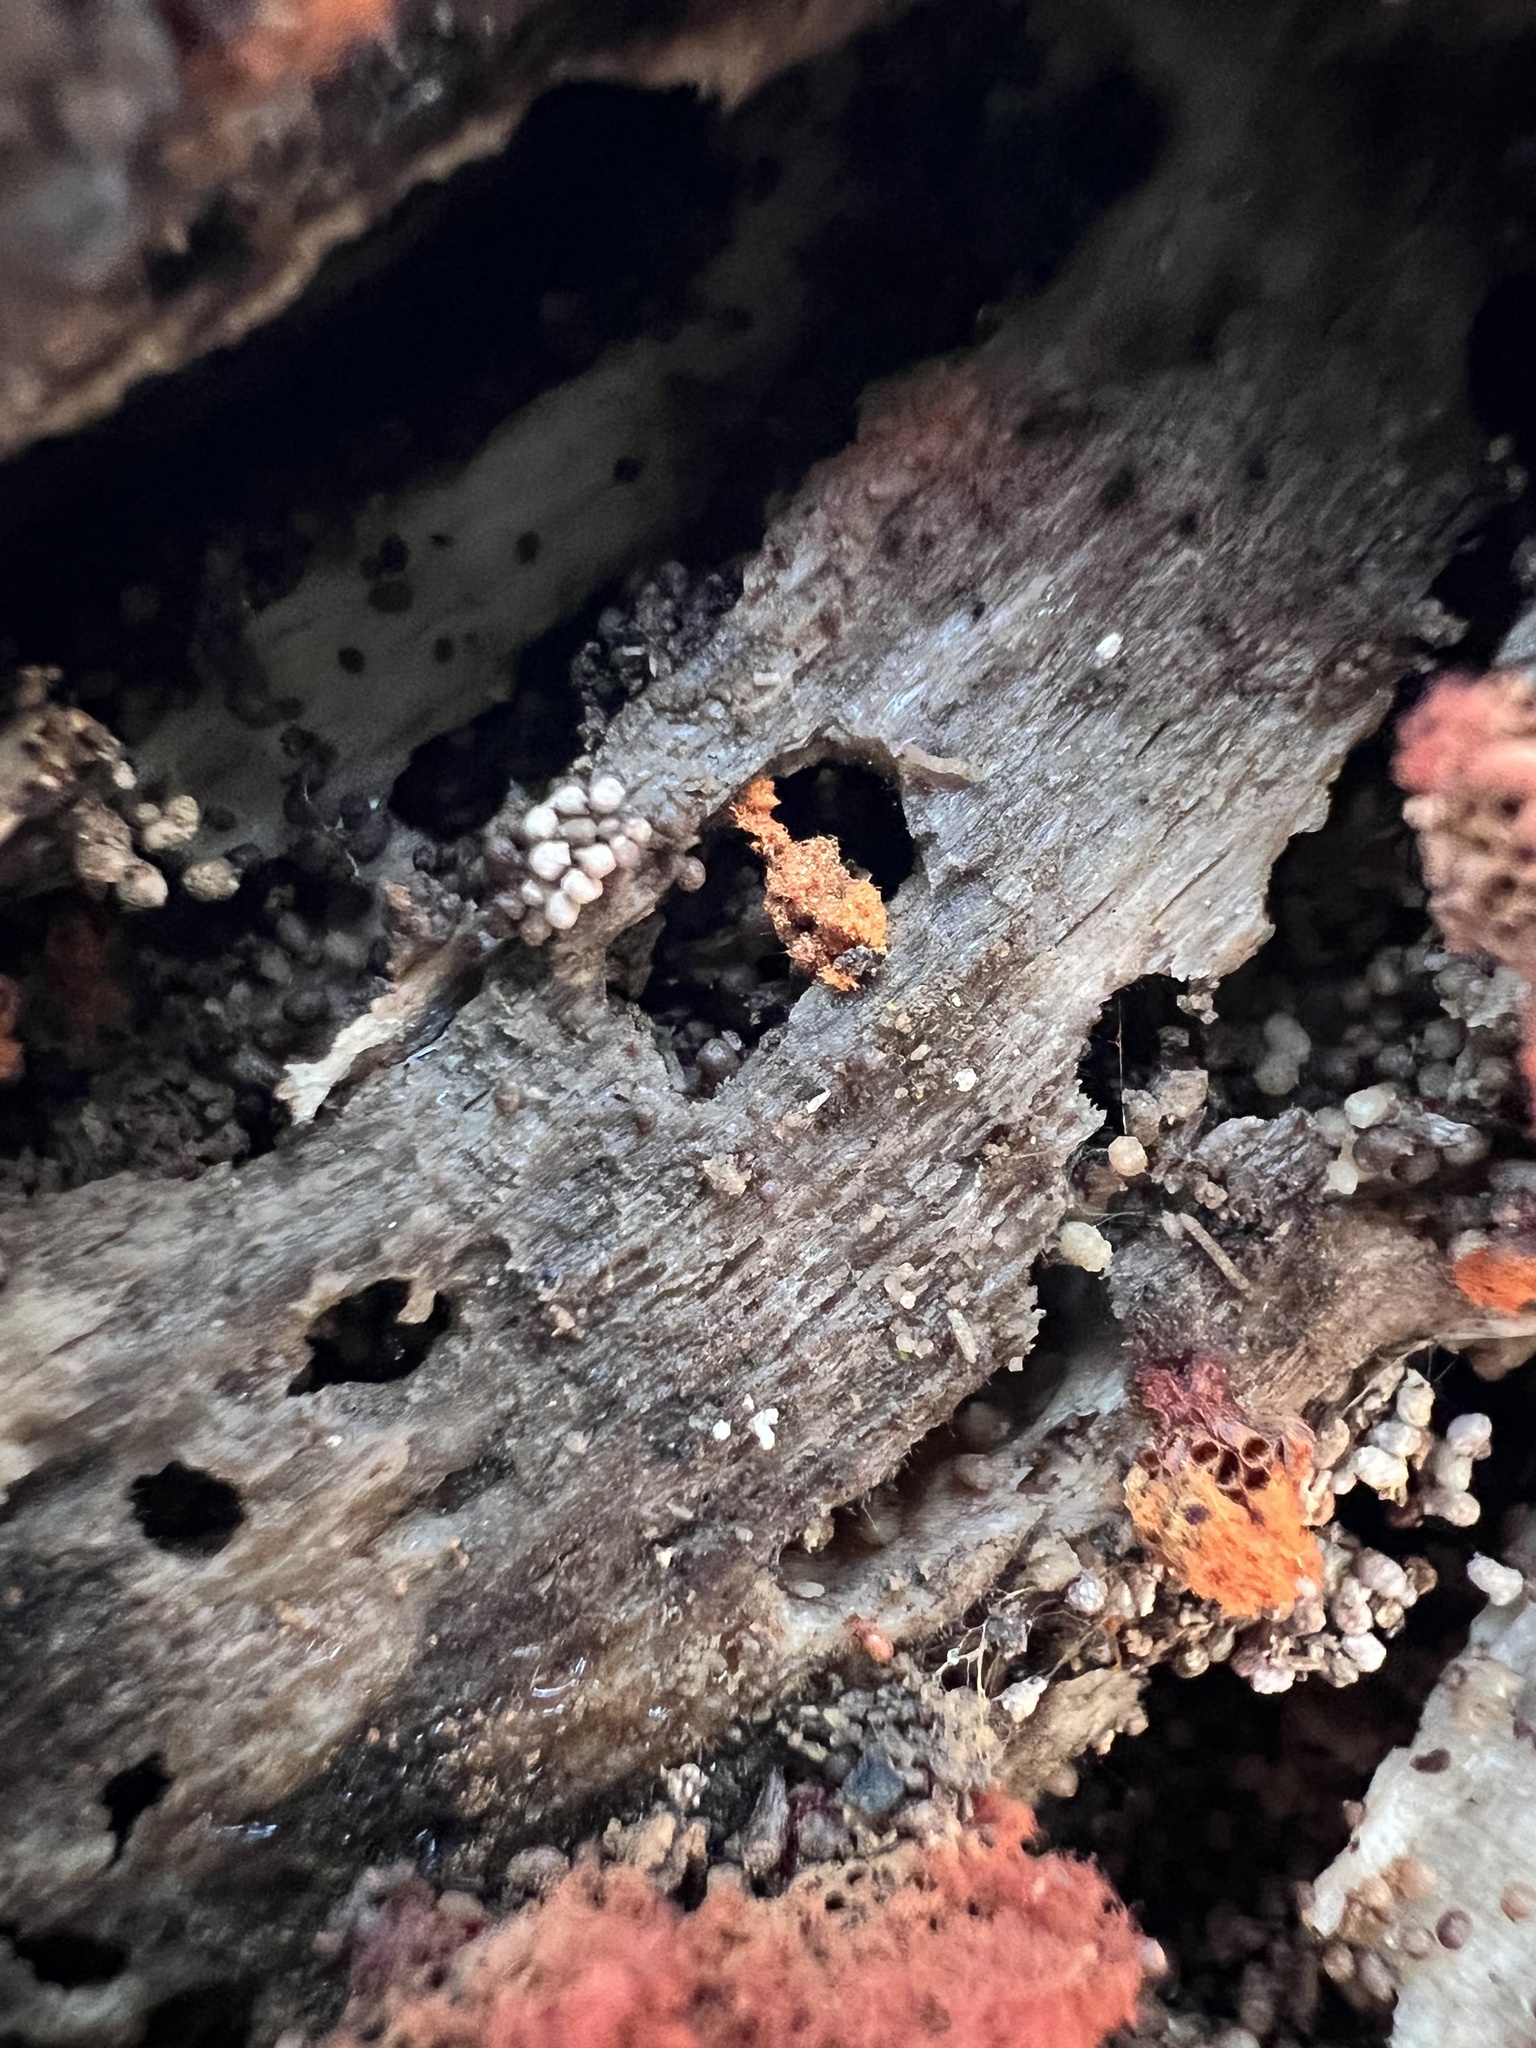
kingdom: Protozoa
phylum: Mycetozoa
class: Myxomycetes
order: Trichiales
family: Trichiaceae
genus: Metatrichia
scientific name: Metatrichia vesparia
